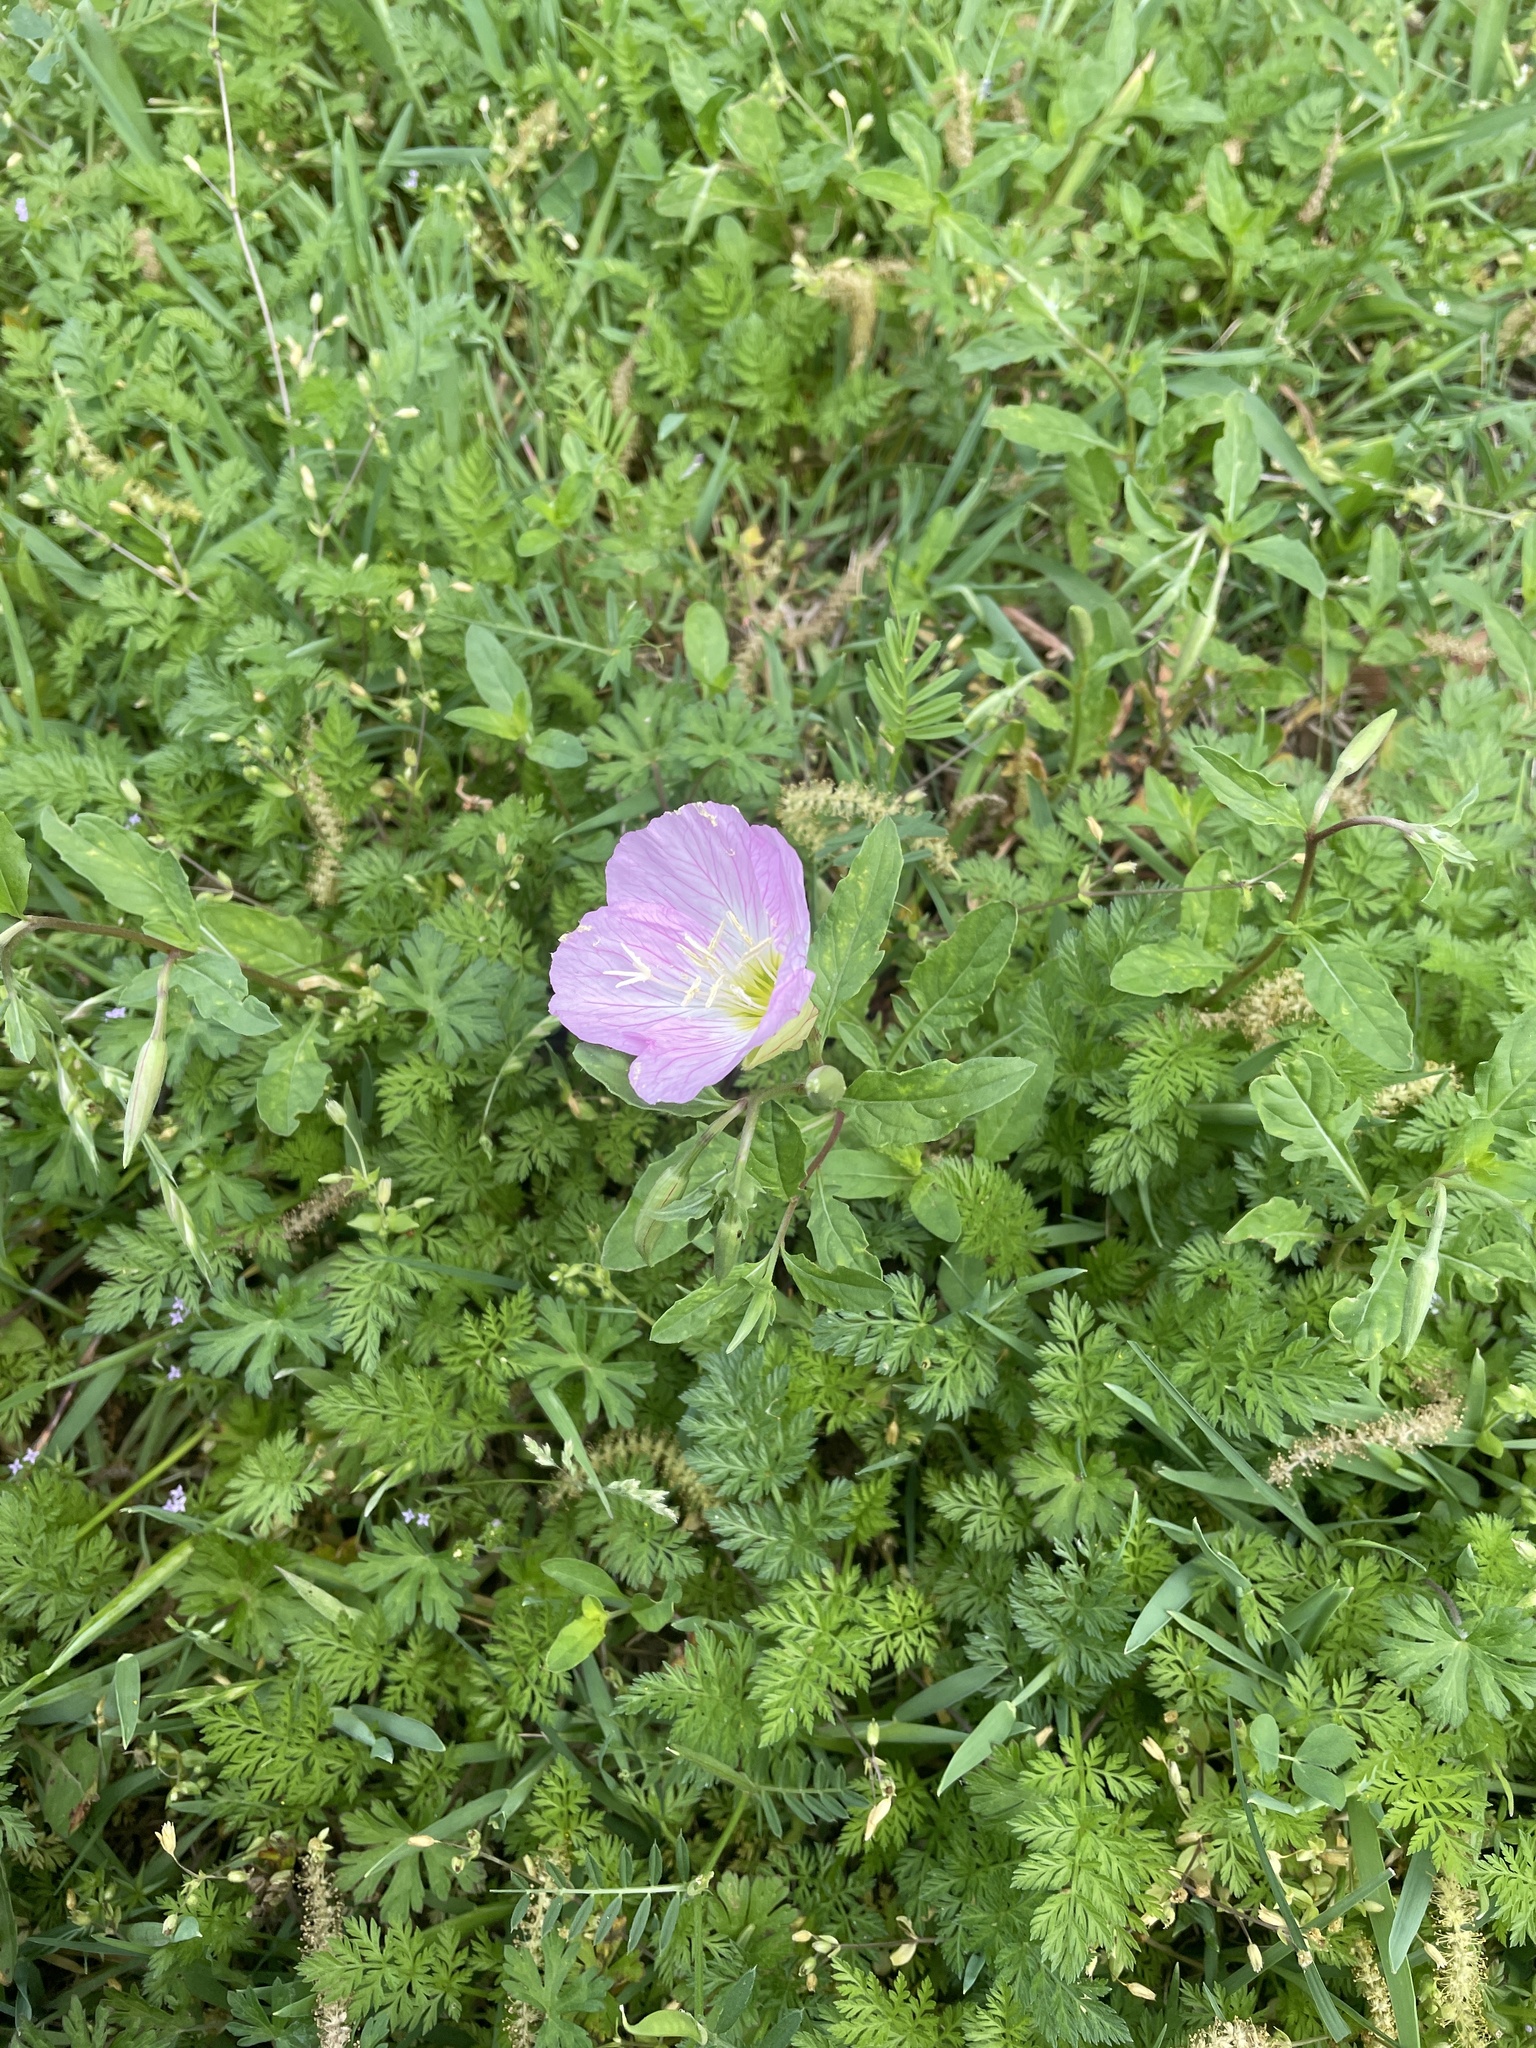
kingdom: Plantae
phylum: Tracheophyta
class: Magnoliopsida
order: Myrtales
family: Onagraceae
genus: Oenothera
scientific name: Oenothera speciosa
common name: White evening-primrose
